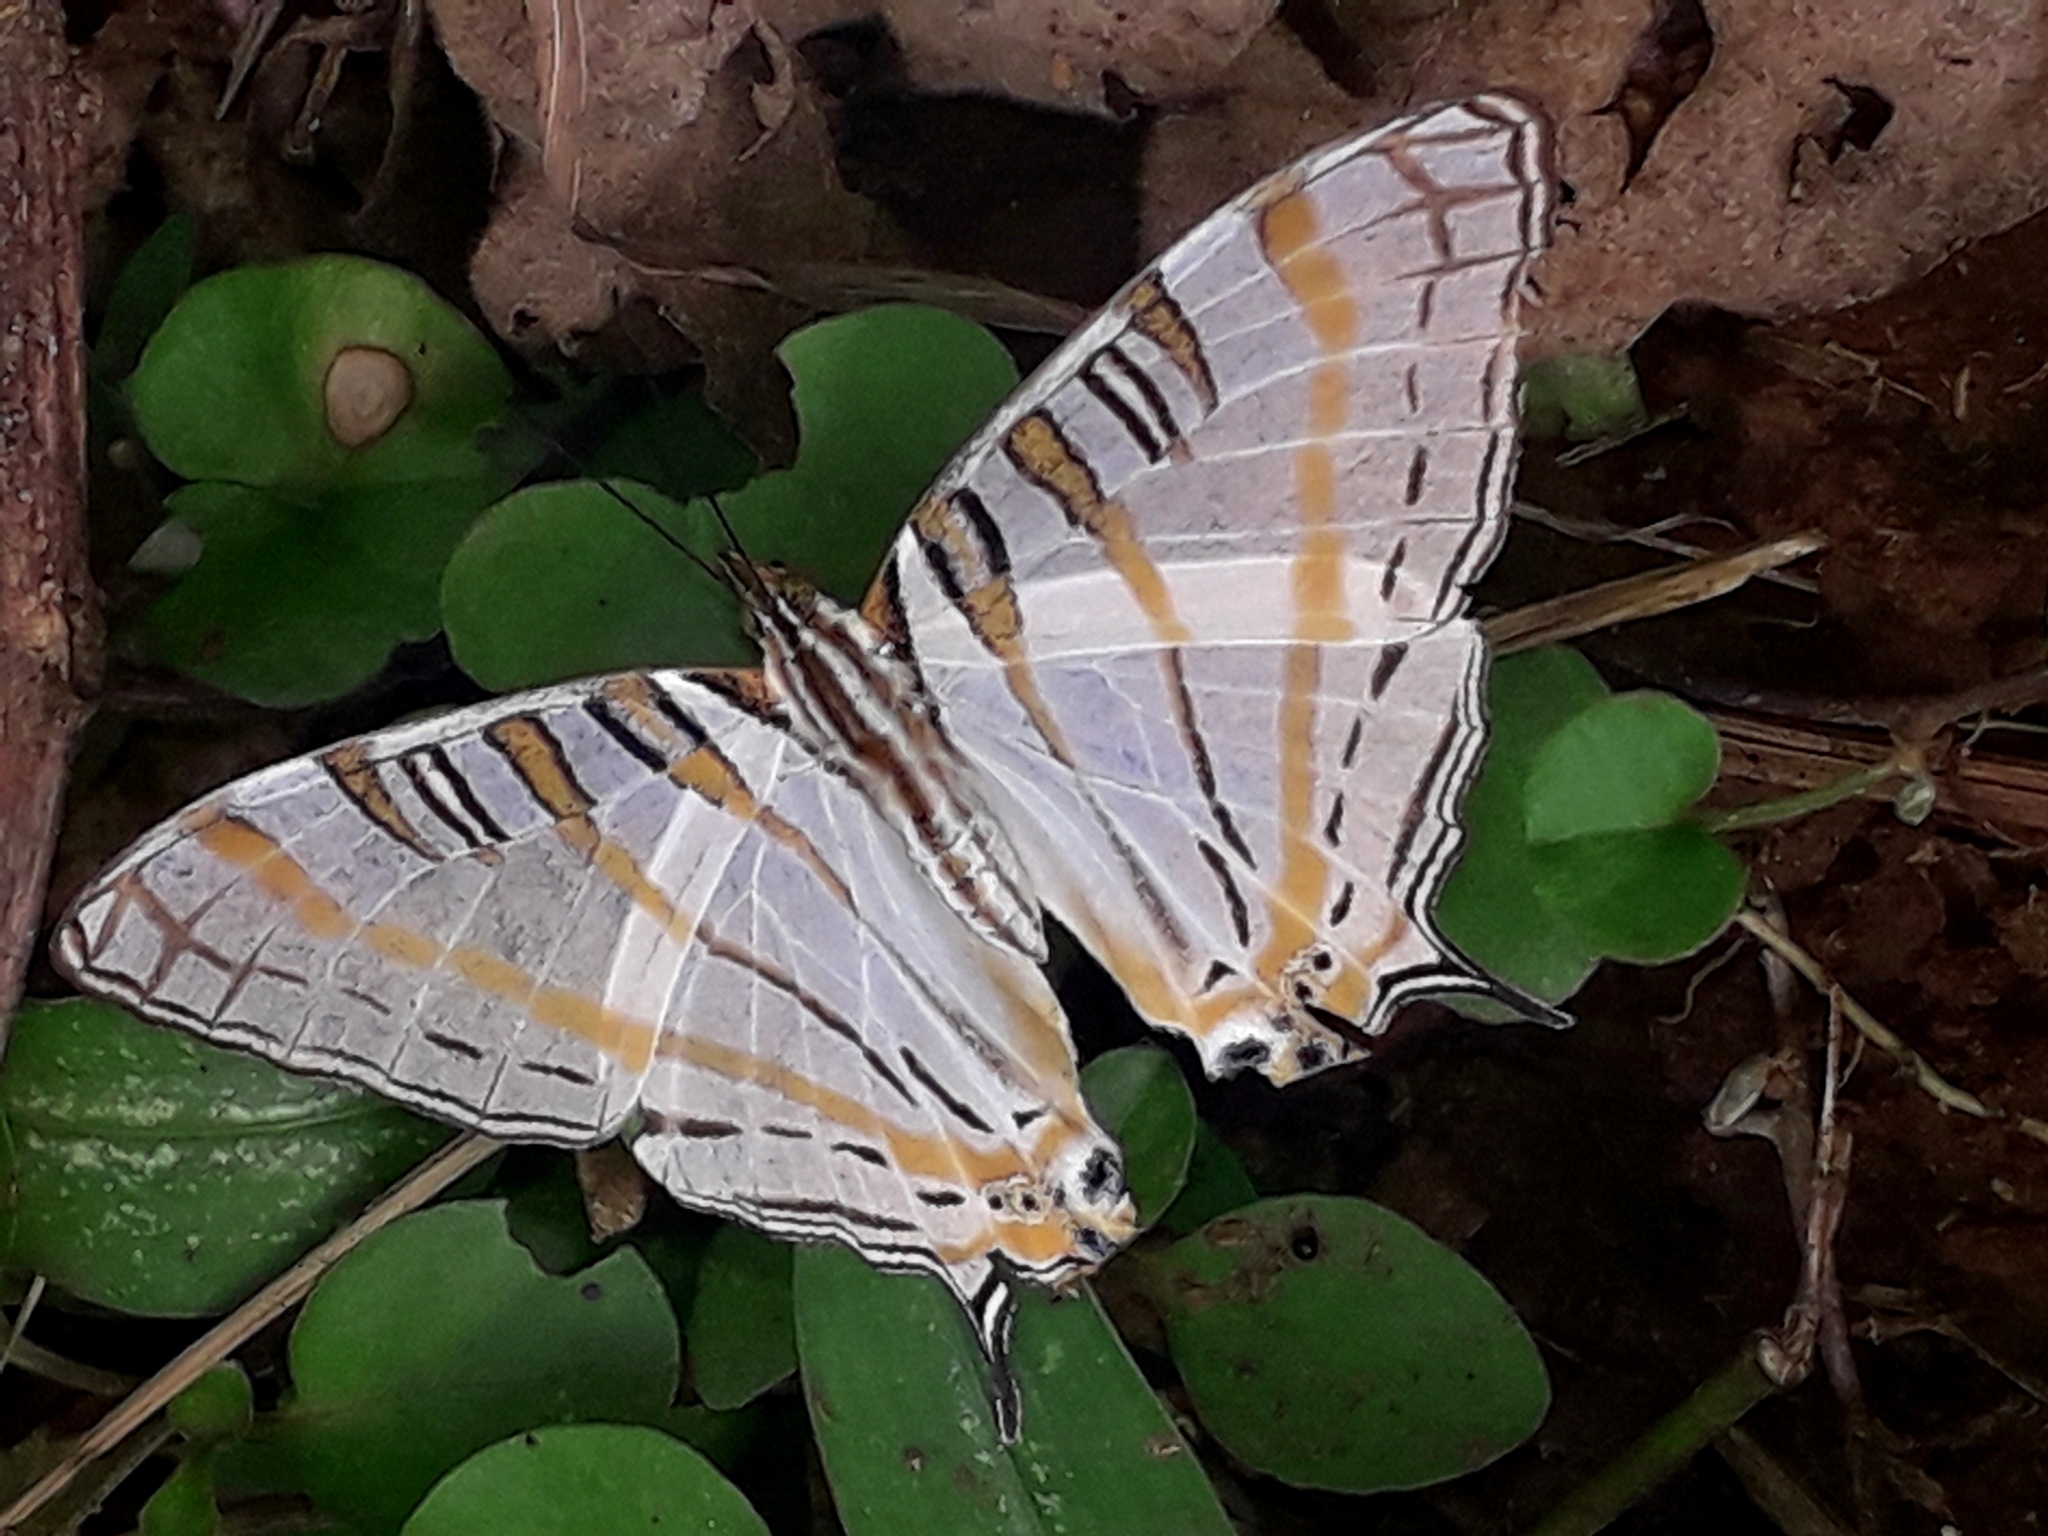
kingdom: Animalia
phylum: Arthropoda
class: Insecta
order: Lepidoptera
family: Nymphalidae
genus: Marpesia
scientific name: Marpesia camillus
